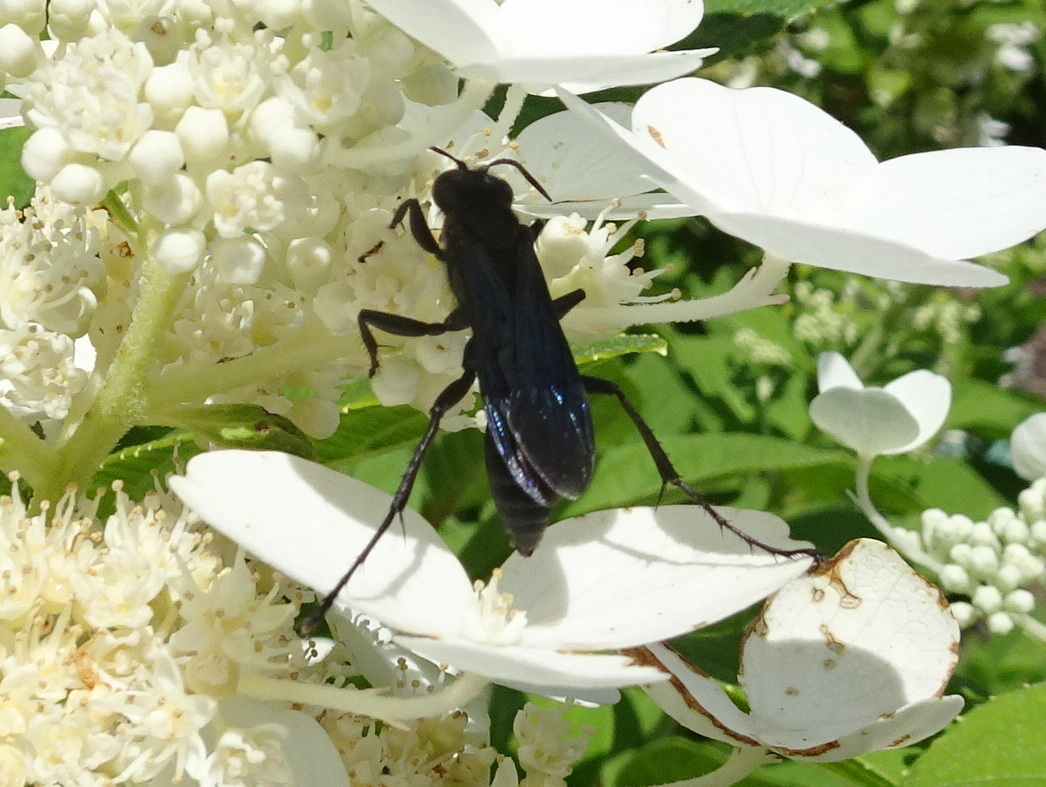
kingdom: Animalia
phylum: Arthropoda
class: Insecta
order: Hymenoptera
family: Sphecidae
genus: Sphex
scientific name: Sphex pensylvanicus
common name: Great black digger wasp
